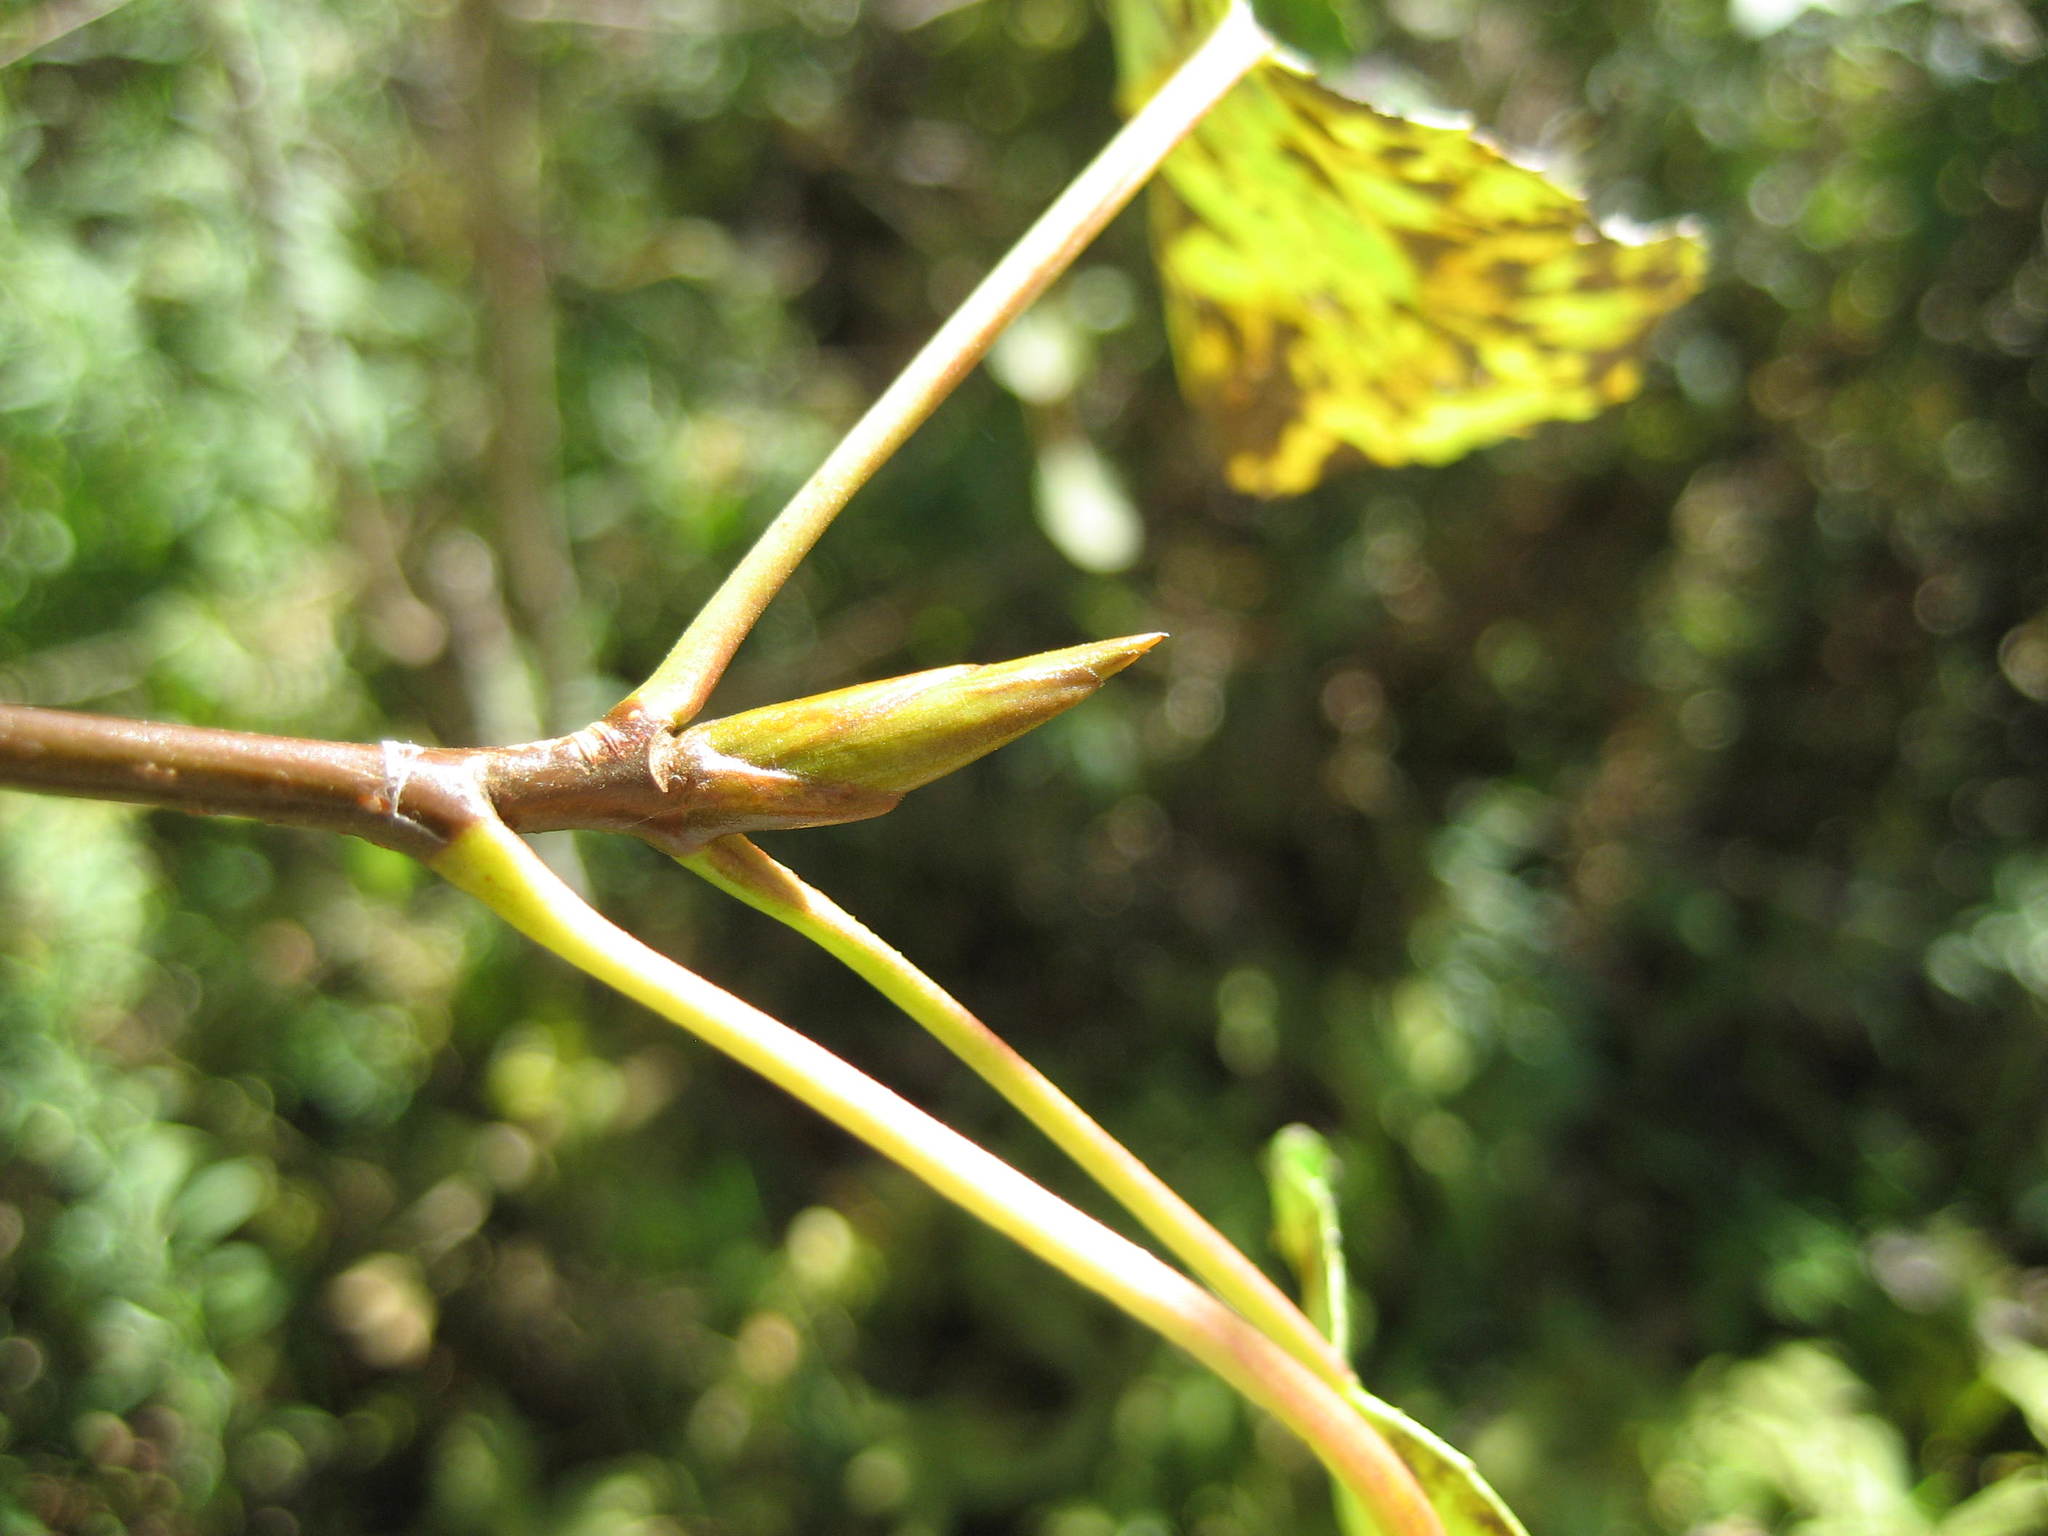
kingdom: Plantae
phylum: Tracheophyta
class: Magnoliopsida
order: Malpighiales
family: Salicaceae
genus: Populus
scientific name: Populus balsamifera
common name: Balsam poplar
